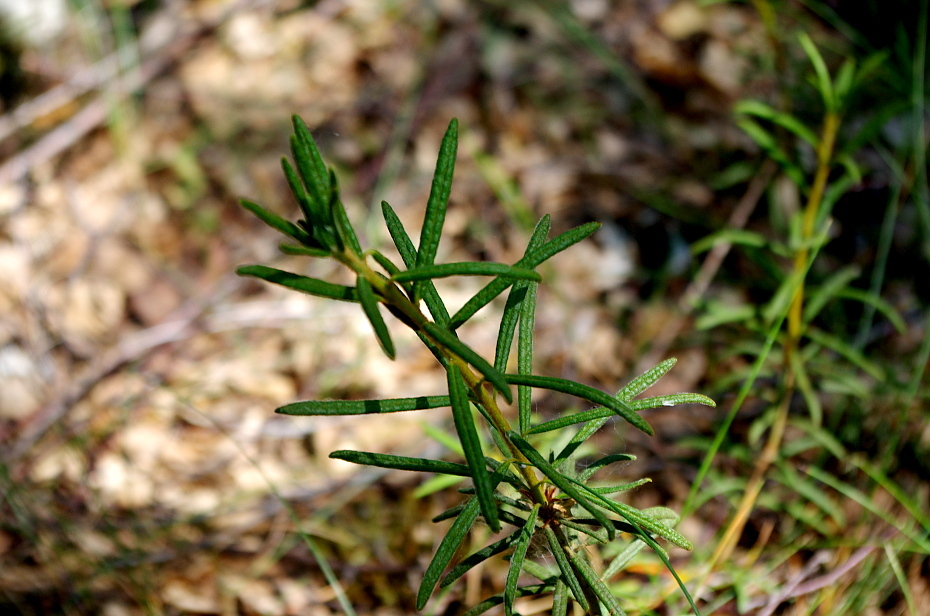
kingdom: Plantae
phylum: Tracheophyta
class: Magnoliopsida
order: Ericales
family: Ericaceae
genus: Rhododendron
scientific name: Rhododendron tomentosum
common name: Marsh labrador tea
